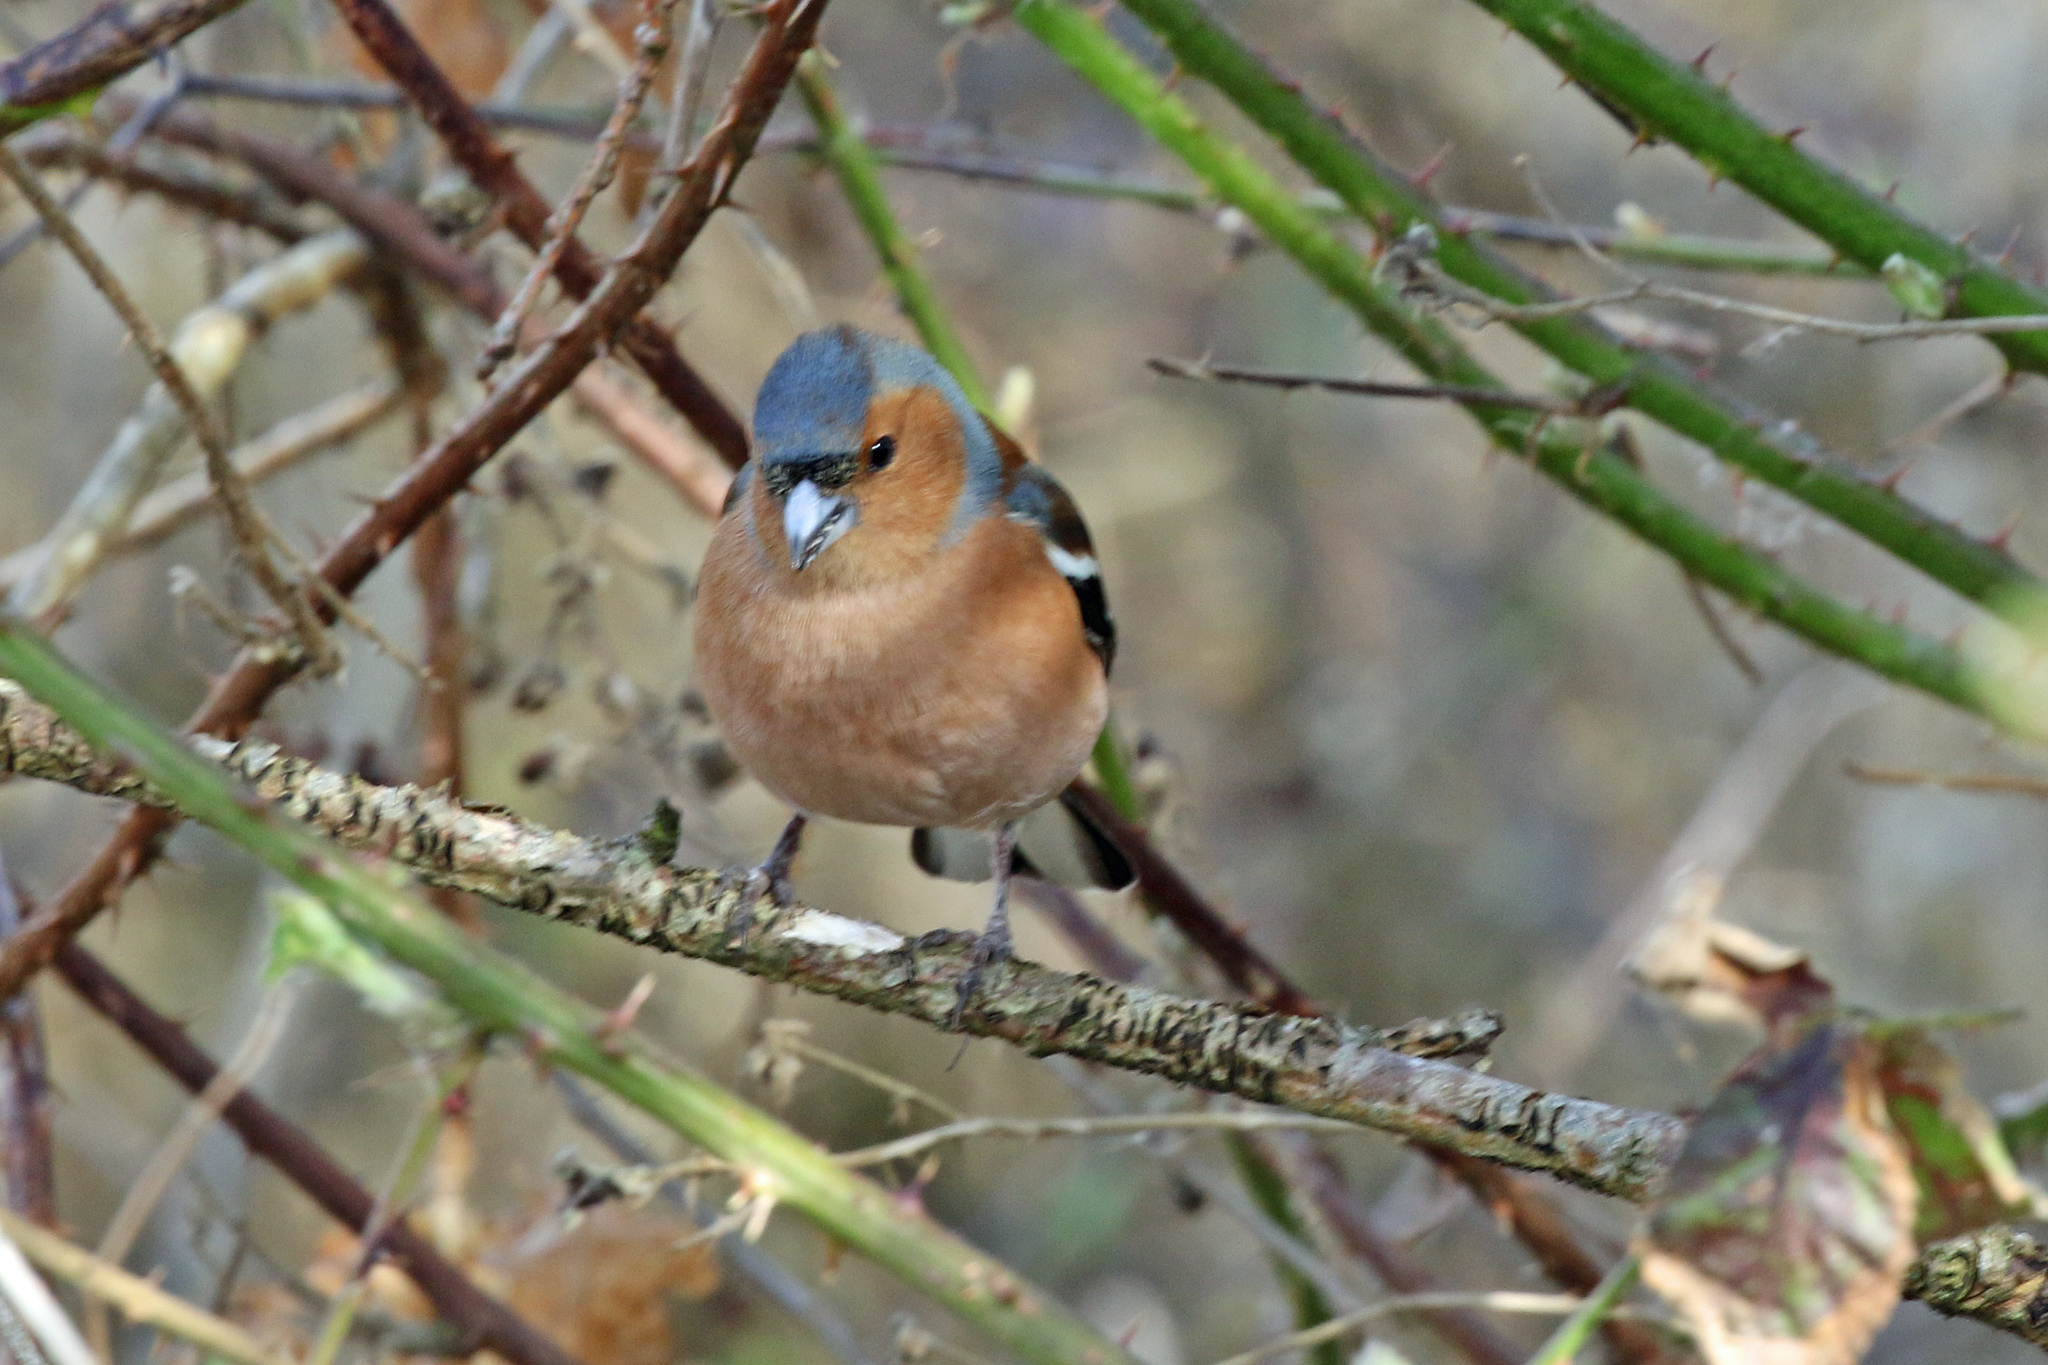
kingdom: Animalia
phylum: Chordata
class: Aves
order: Passeriformes
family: Fringillidae
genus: Fringilla
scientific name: Fringilla coelebs
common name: Common chaffinch
